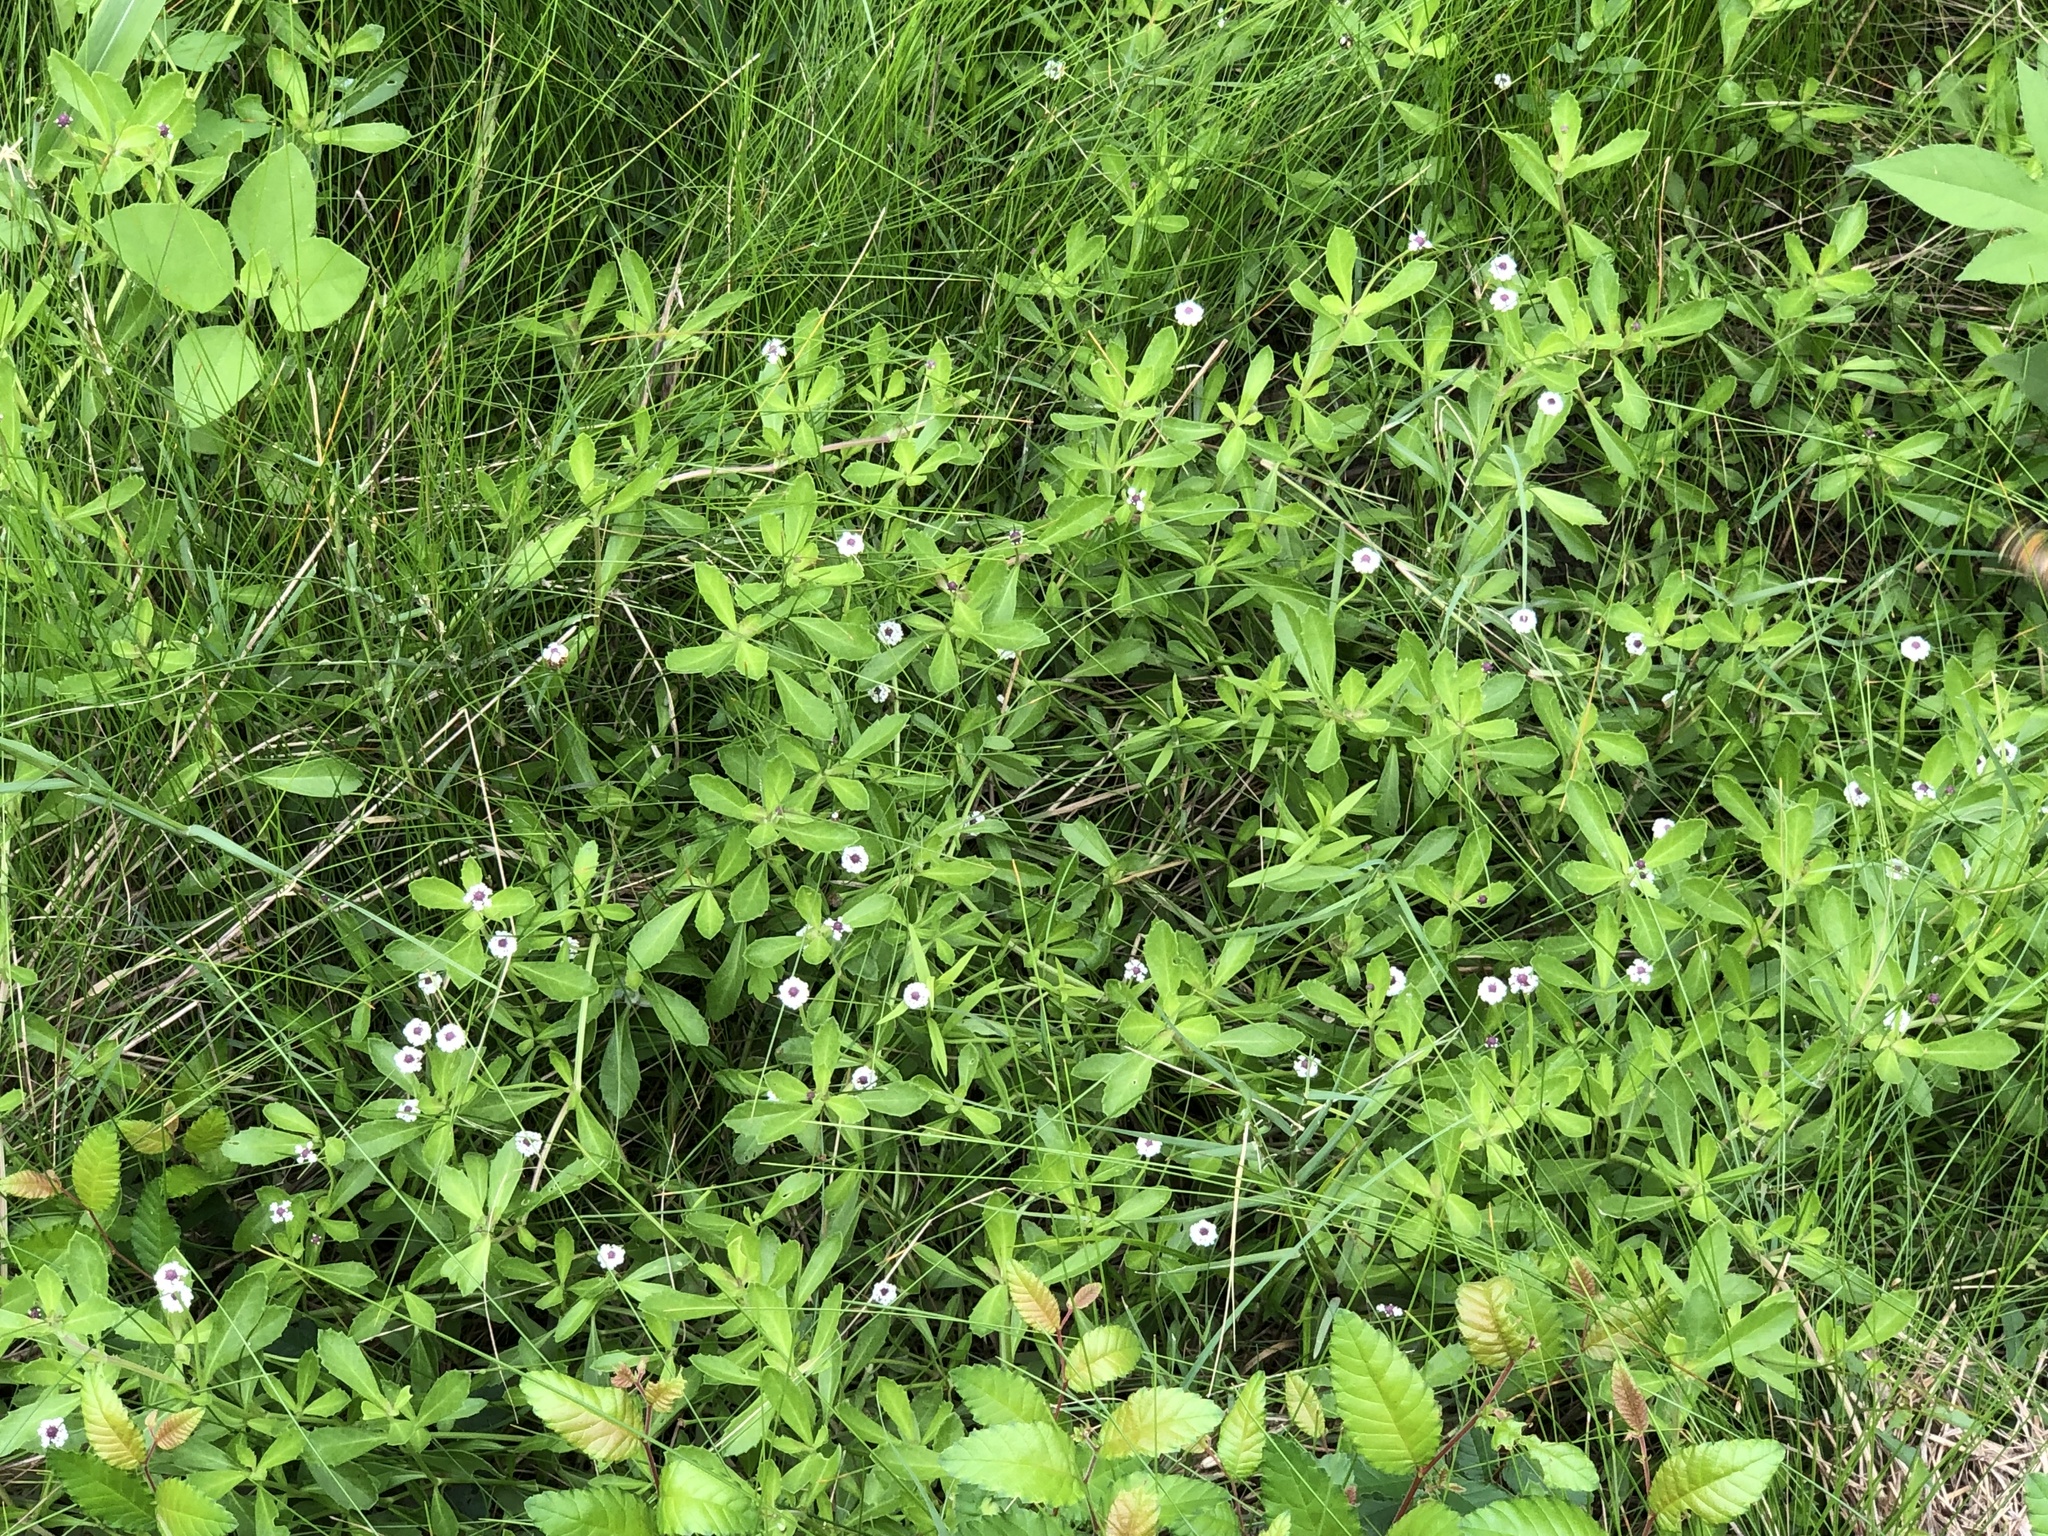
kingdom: Plantae
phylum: Tracheophyta
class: Magnoliopsida
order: Lamiales
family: Verbenaceae
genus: Phyla
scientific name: Phyla nodiflora
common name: Frogfruit
